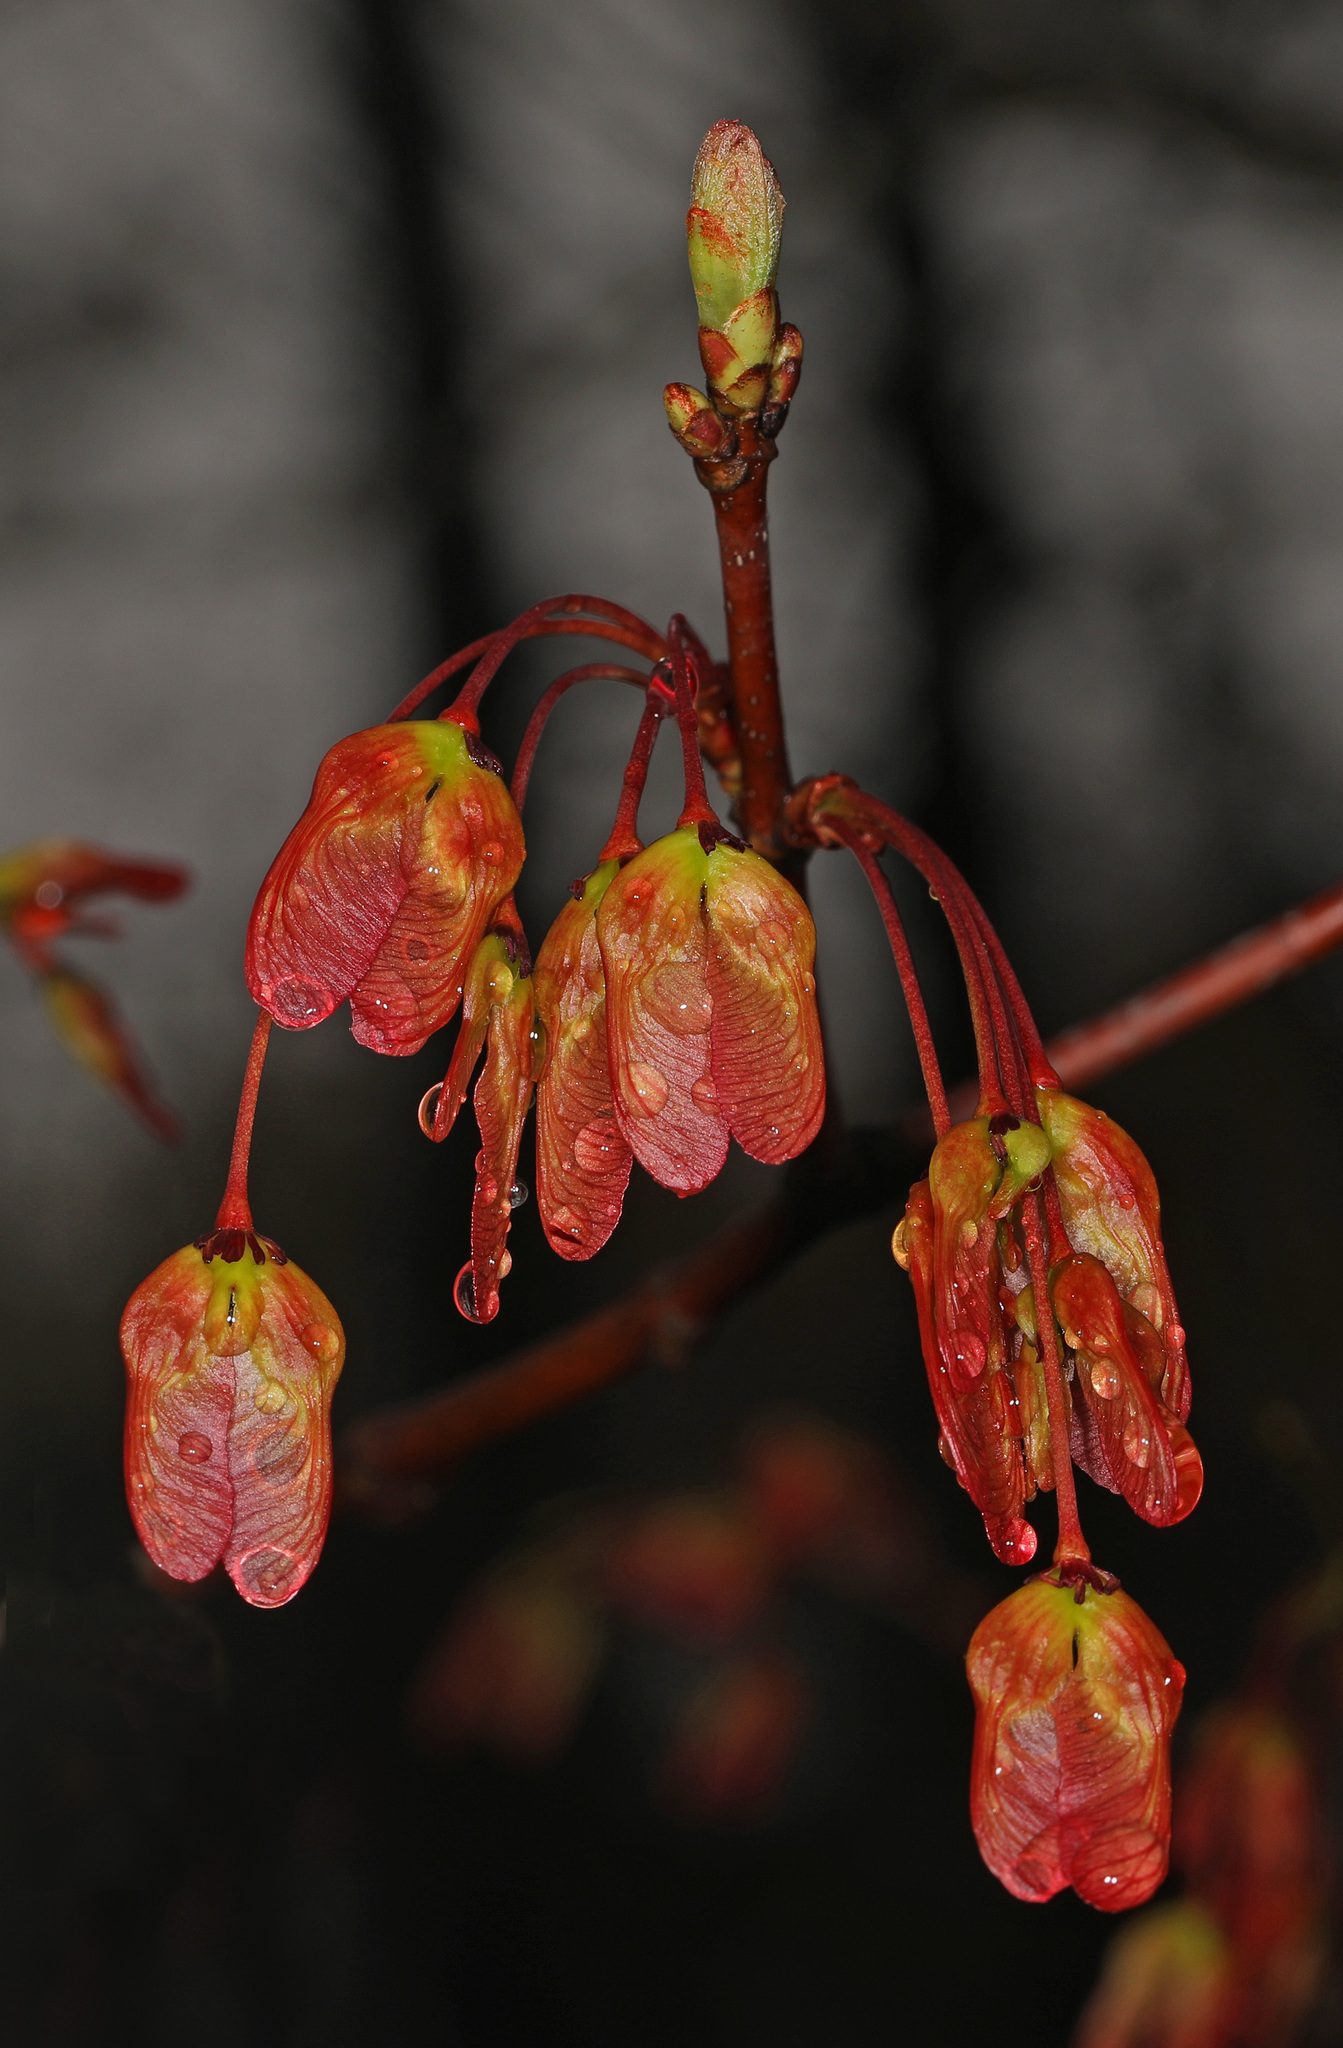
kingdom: Plantae
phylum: Tracheophyta
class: Magnoliopsida
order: Sapindales
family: Sapindaceae
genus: Acer
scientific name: Acer rubrum
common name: Red maple
